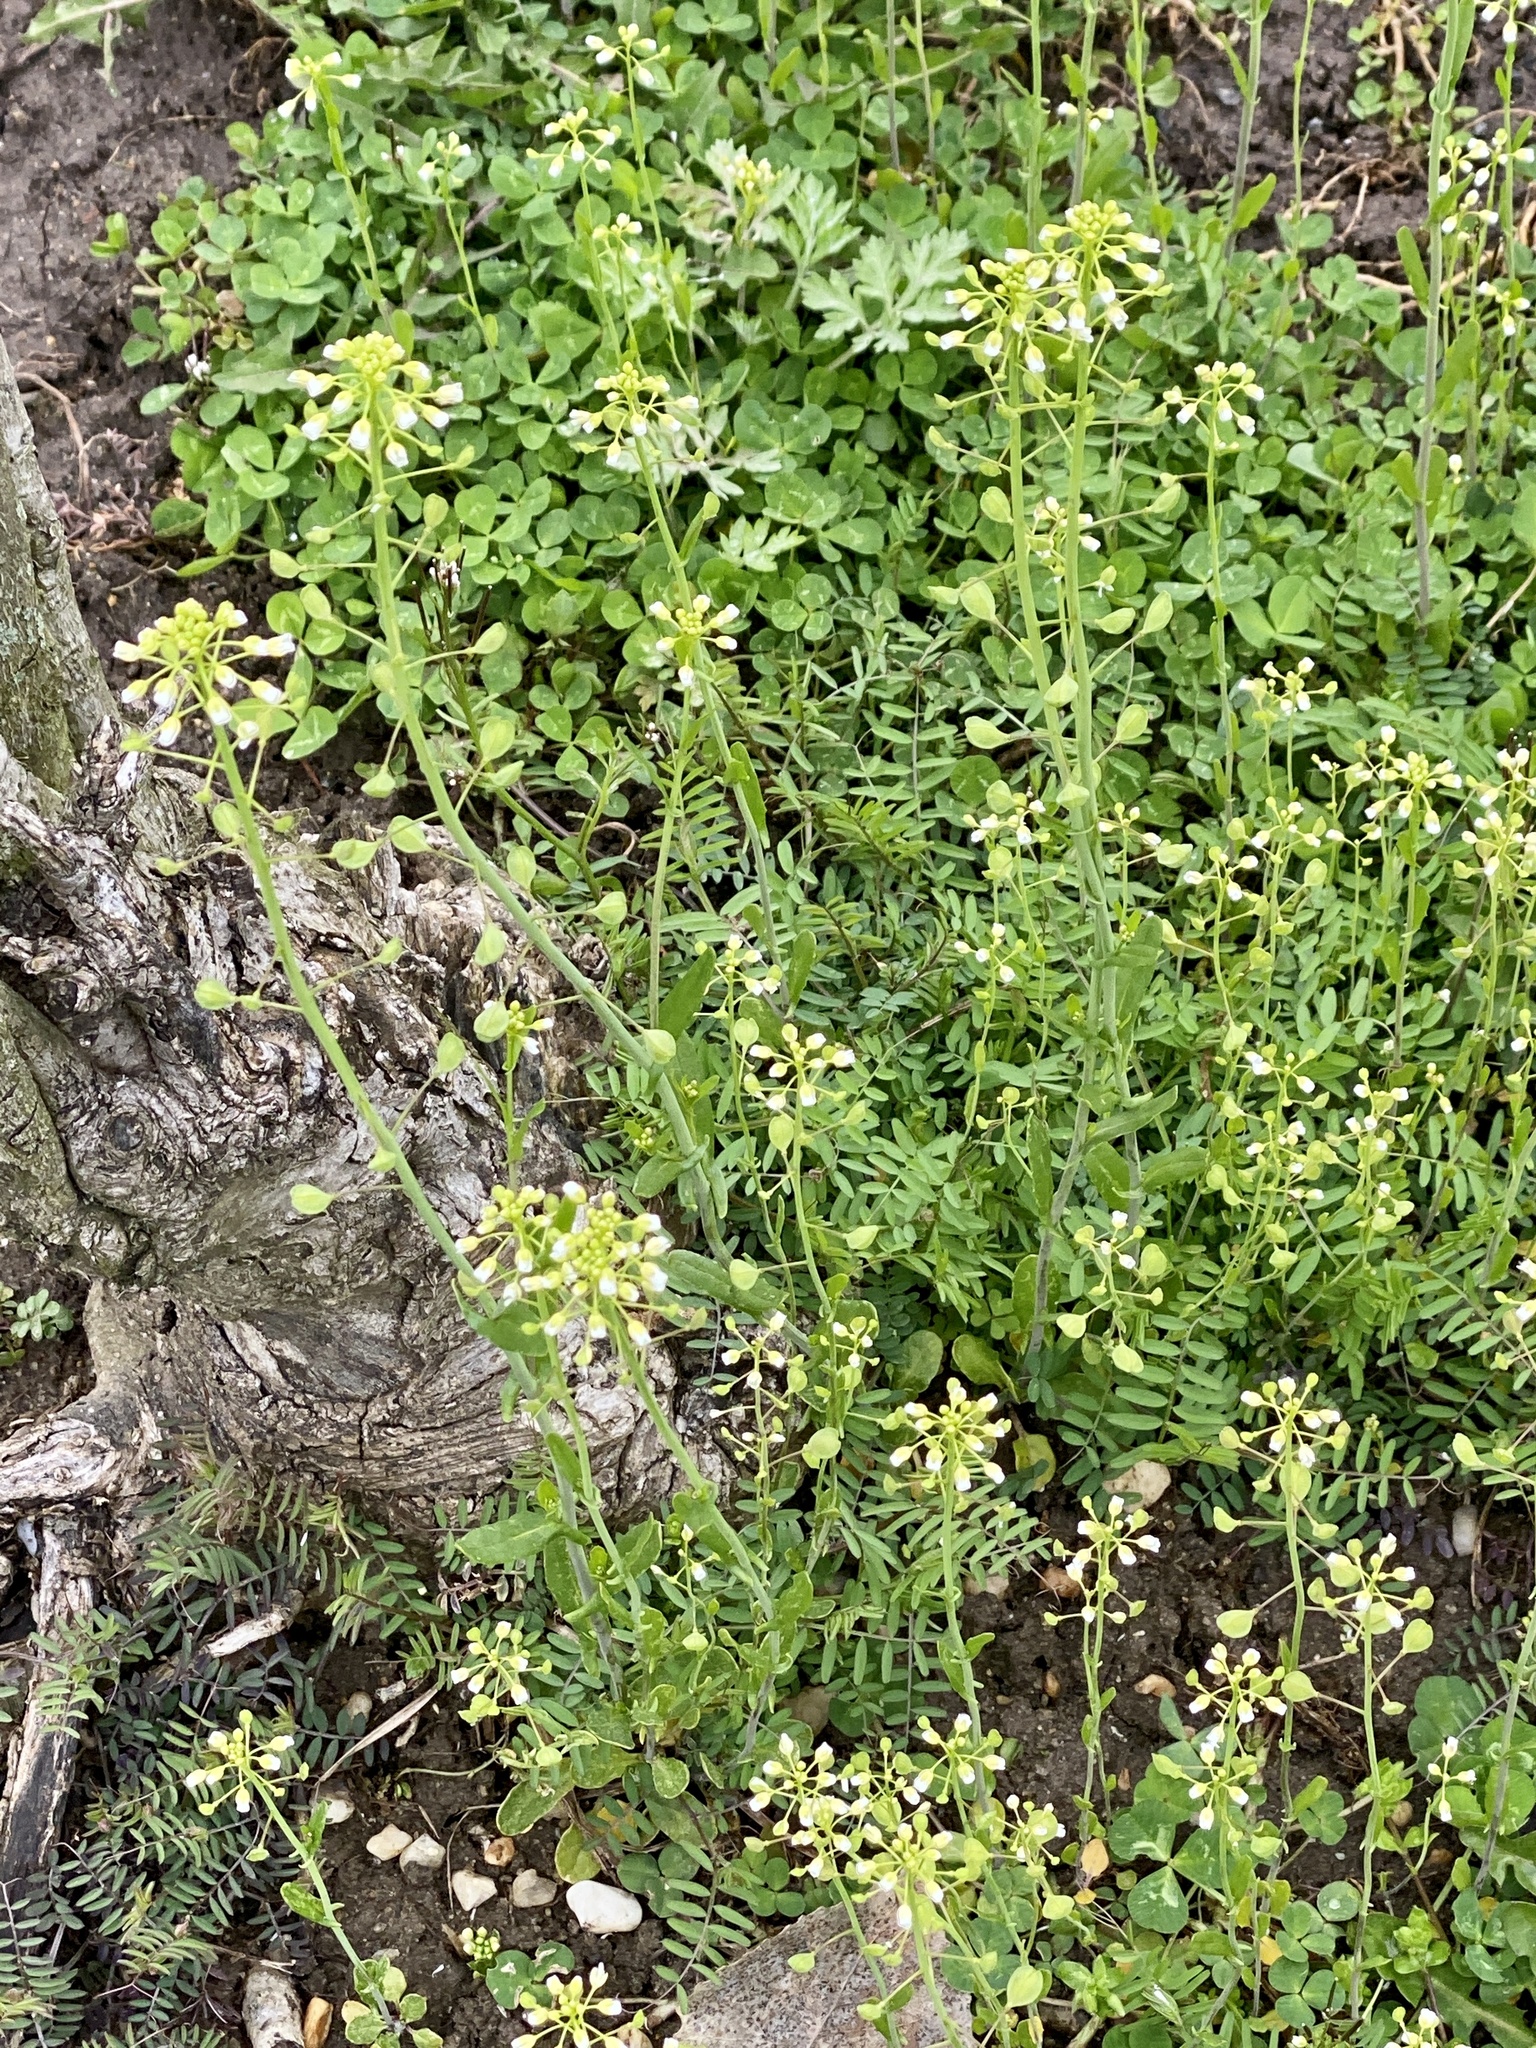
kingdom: Plantae
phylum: Tracheophyta
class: Magnoliopsida
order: Brassicales
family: Brassicaceae
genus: Mummenhoffia
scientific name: Mummenhoffia alliacea
